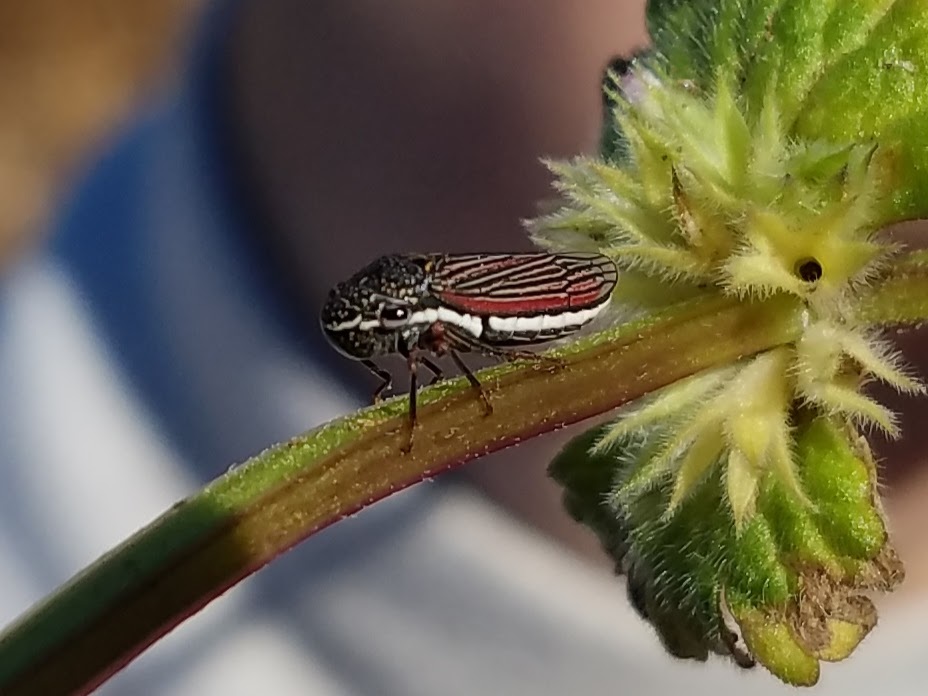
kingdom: Animalia
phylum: Arthropoda
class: Insecta
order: Hemiptera
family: Cicadellidae
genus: Cuerna
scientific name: Cuerna costalis
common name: Lateral-lined sharpshooter
